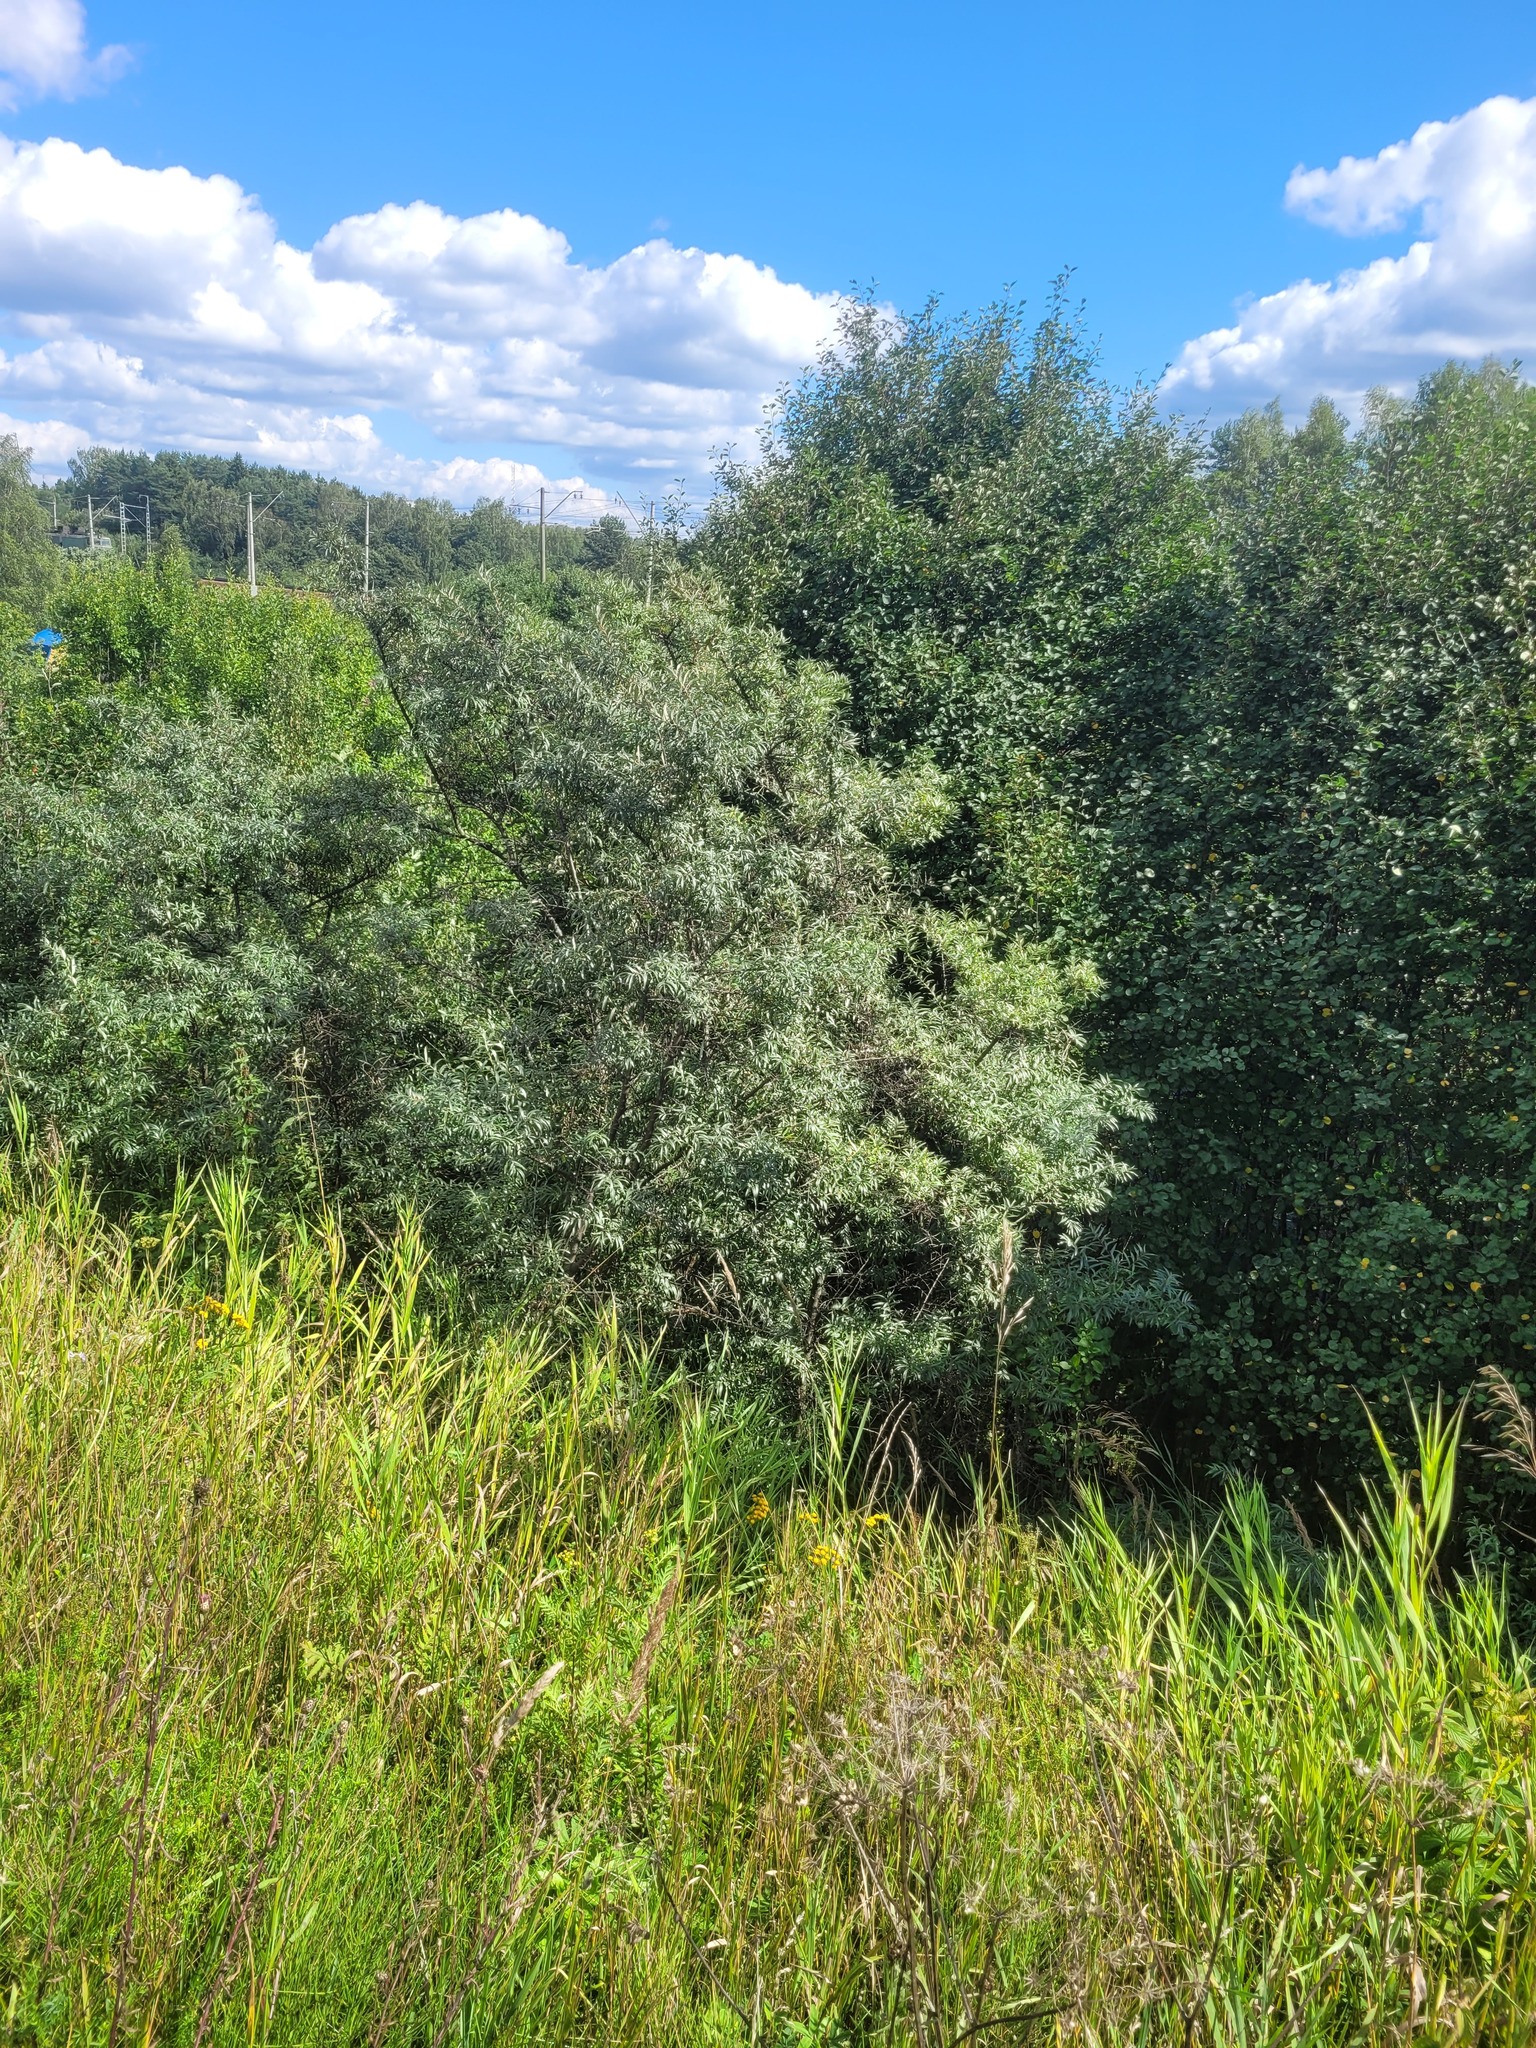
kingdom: Plantae
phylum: Tracheophyta
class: Magnoliopsida
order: Rosales
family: Elaeagnaceae
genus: Hippophae
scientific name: Hippophae rhamnoides
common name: Sea-buckthorn
